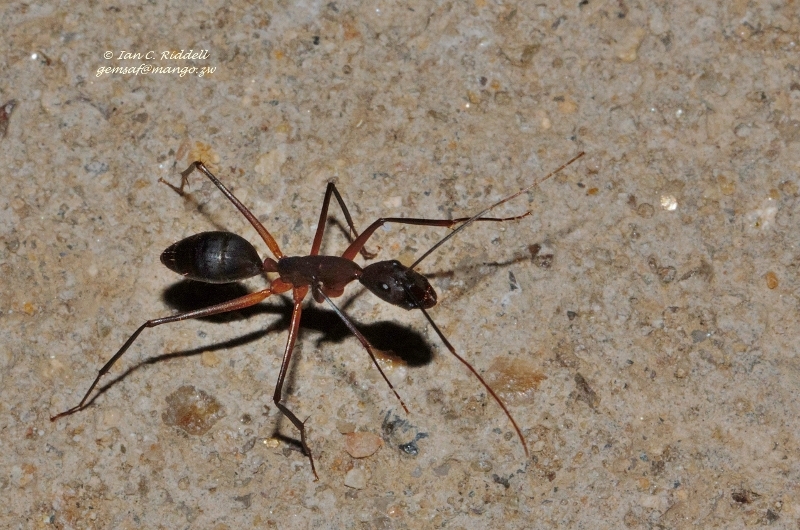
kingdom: Animalia
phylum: Arthropoda
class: Insecta
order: Hymenoptera
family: Formicidae
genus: Camponotus
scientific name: Camponotus etiolipes
